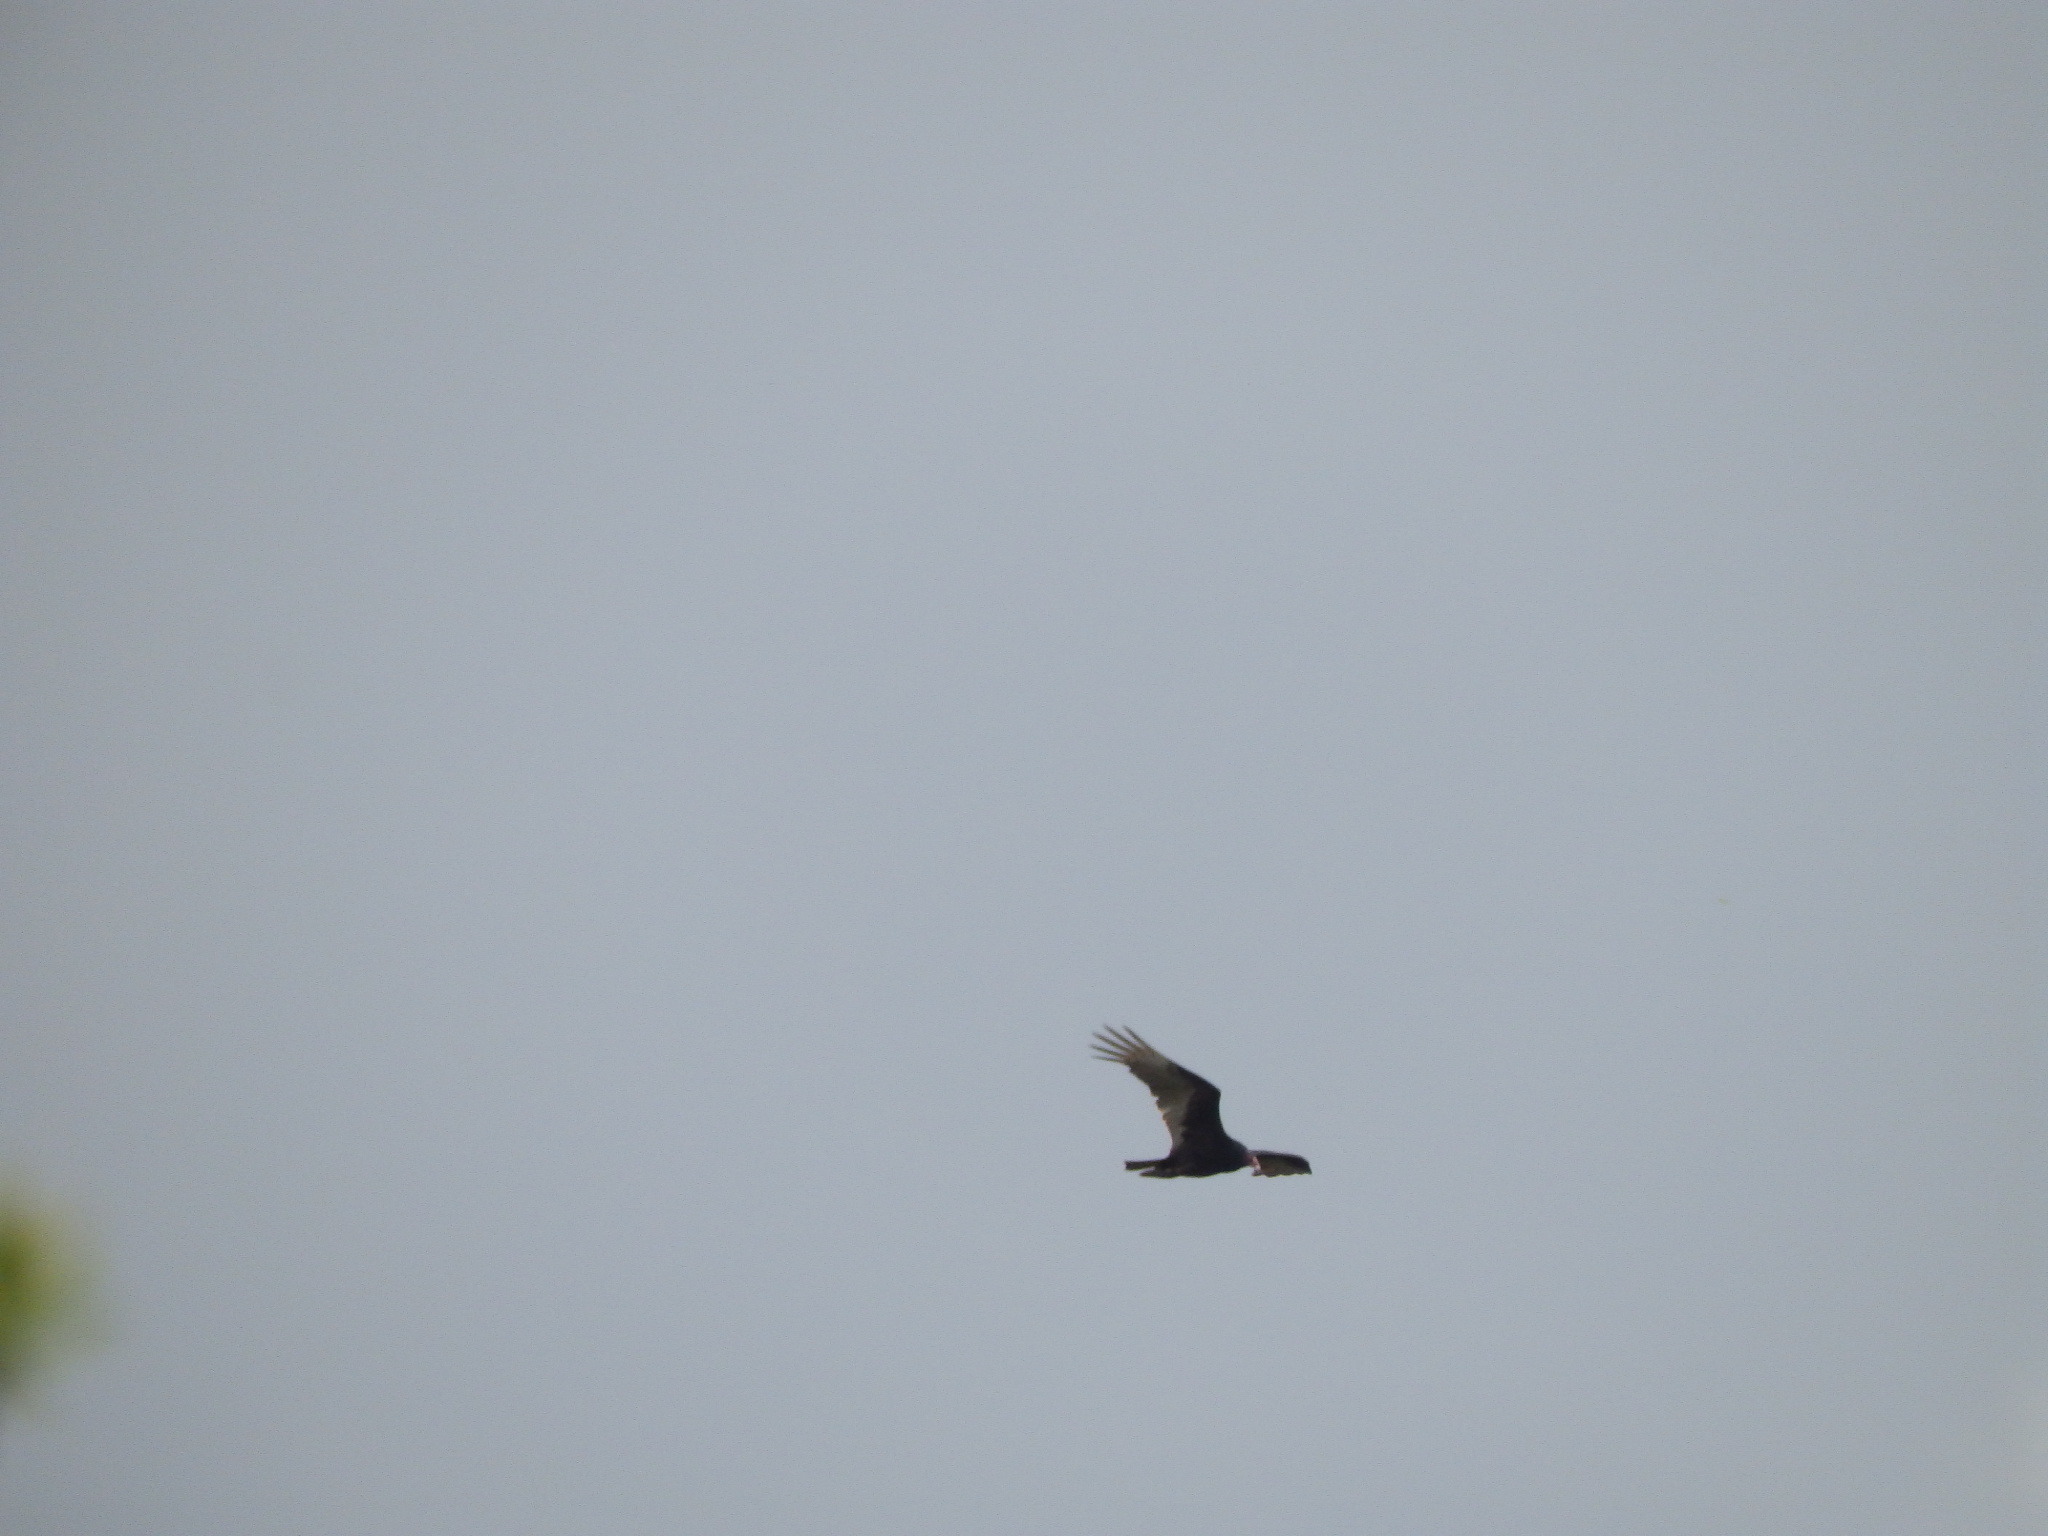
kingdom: Animalia
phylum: Chordata
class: Aves
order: Accipitriformes
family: Cathartidae
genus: Cathartes
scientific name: Cathartes aura
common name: Turkey vulture
